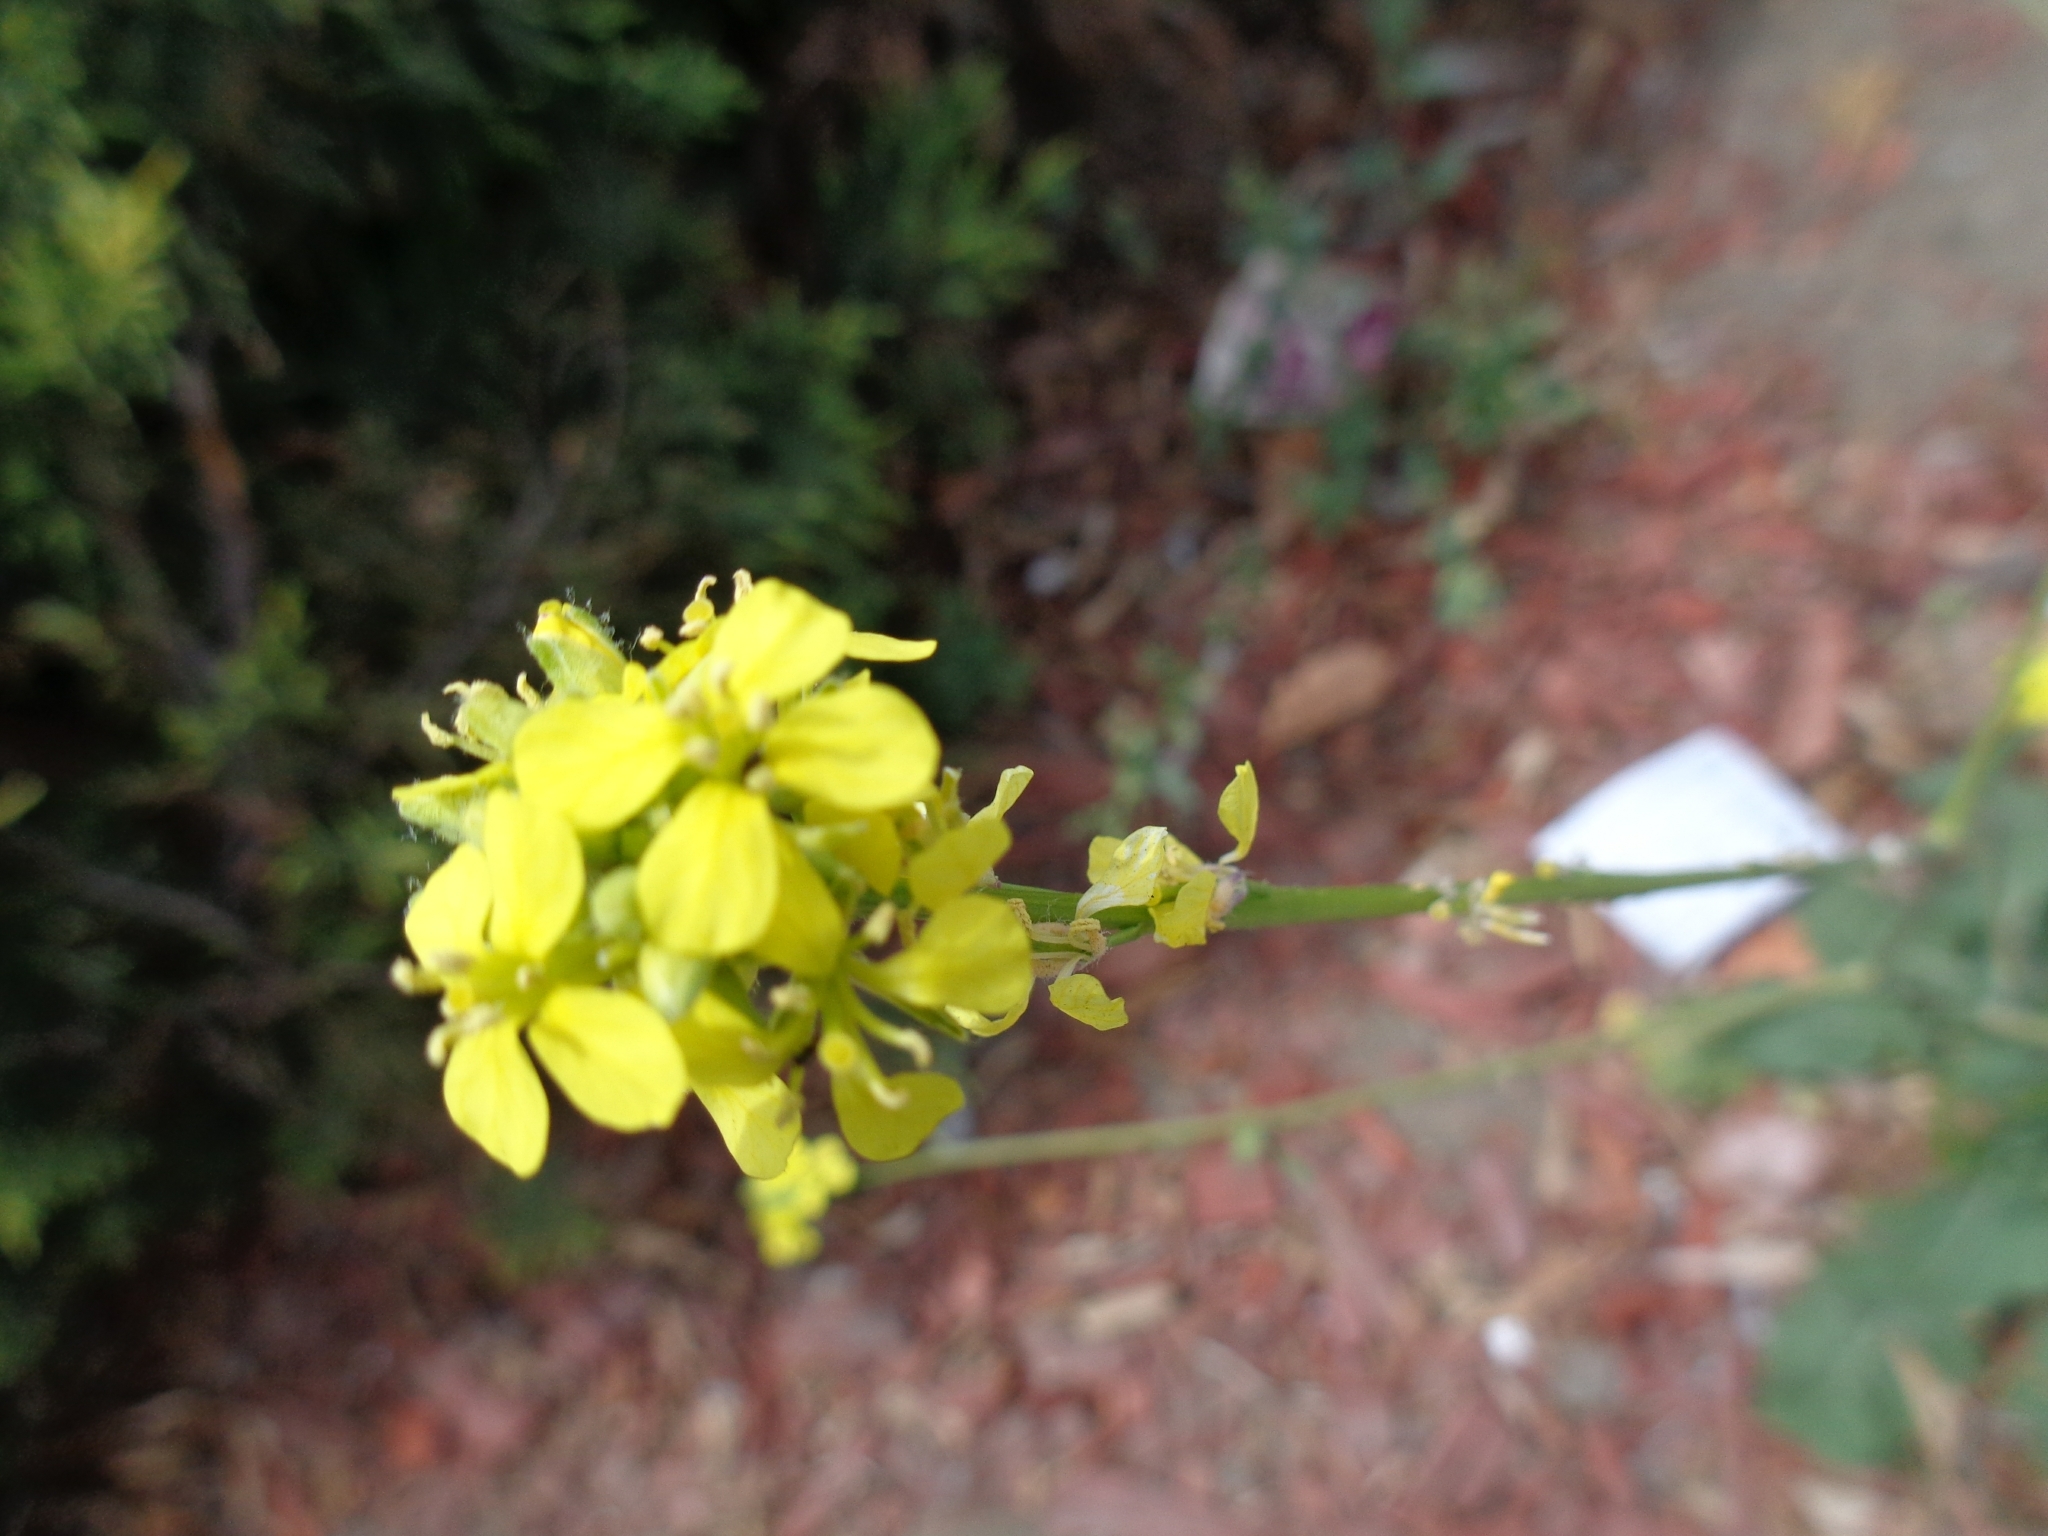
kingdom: Plantae
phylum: Tracheophyta
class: Magnoliopsida
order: Brassicales
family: Brassicaceae
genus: Hirschfeldia
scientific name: Hirschfeldia incana
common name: Hoary mustard
